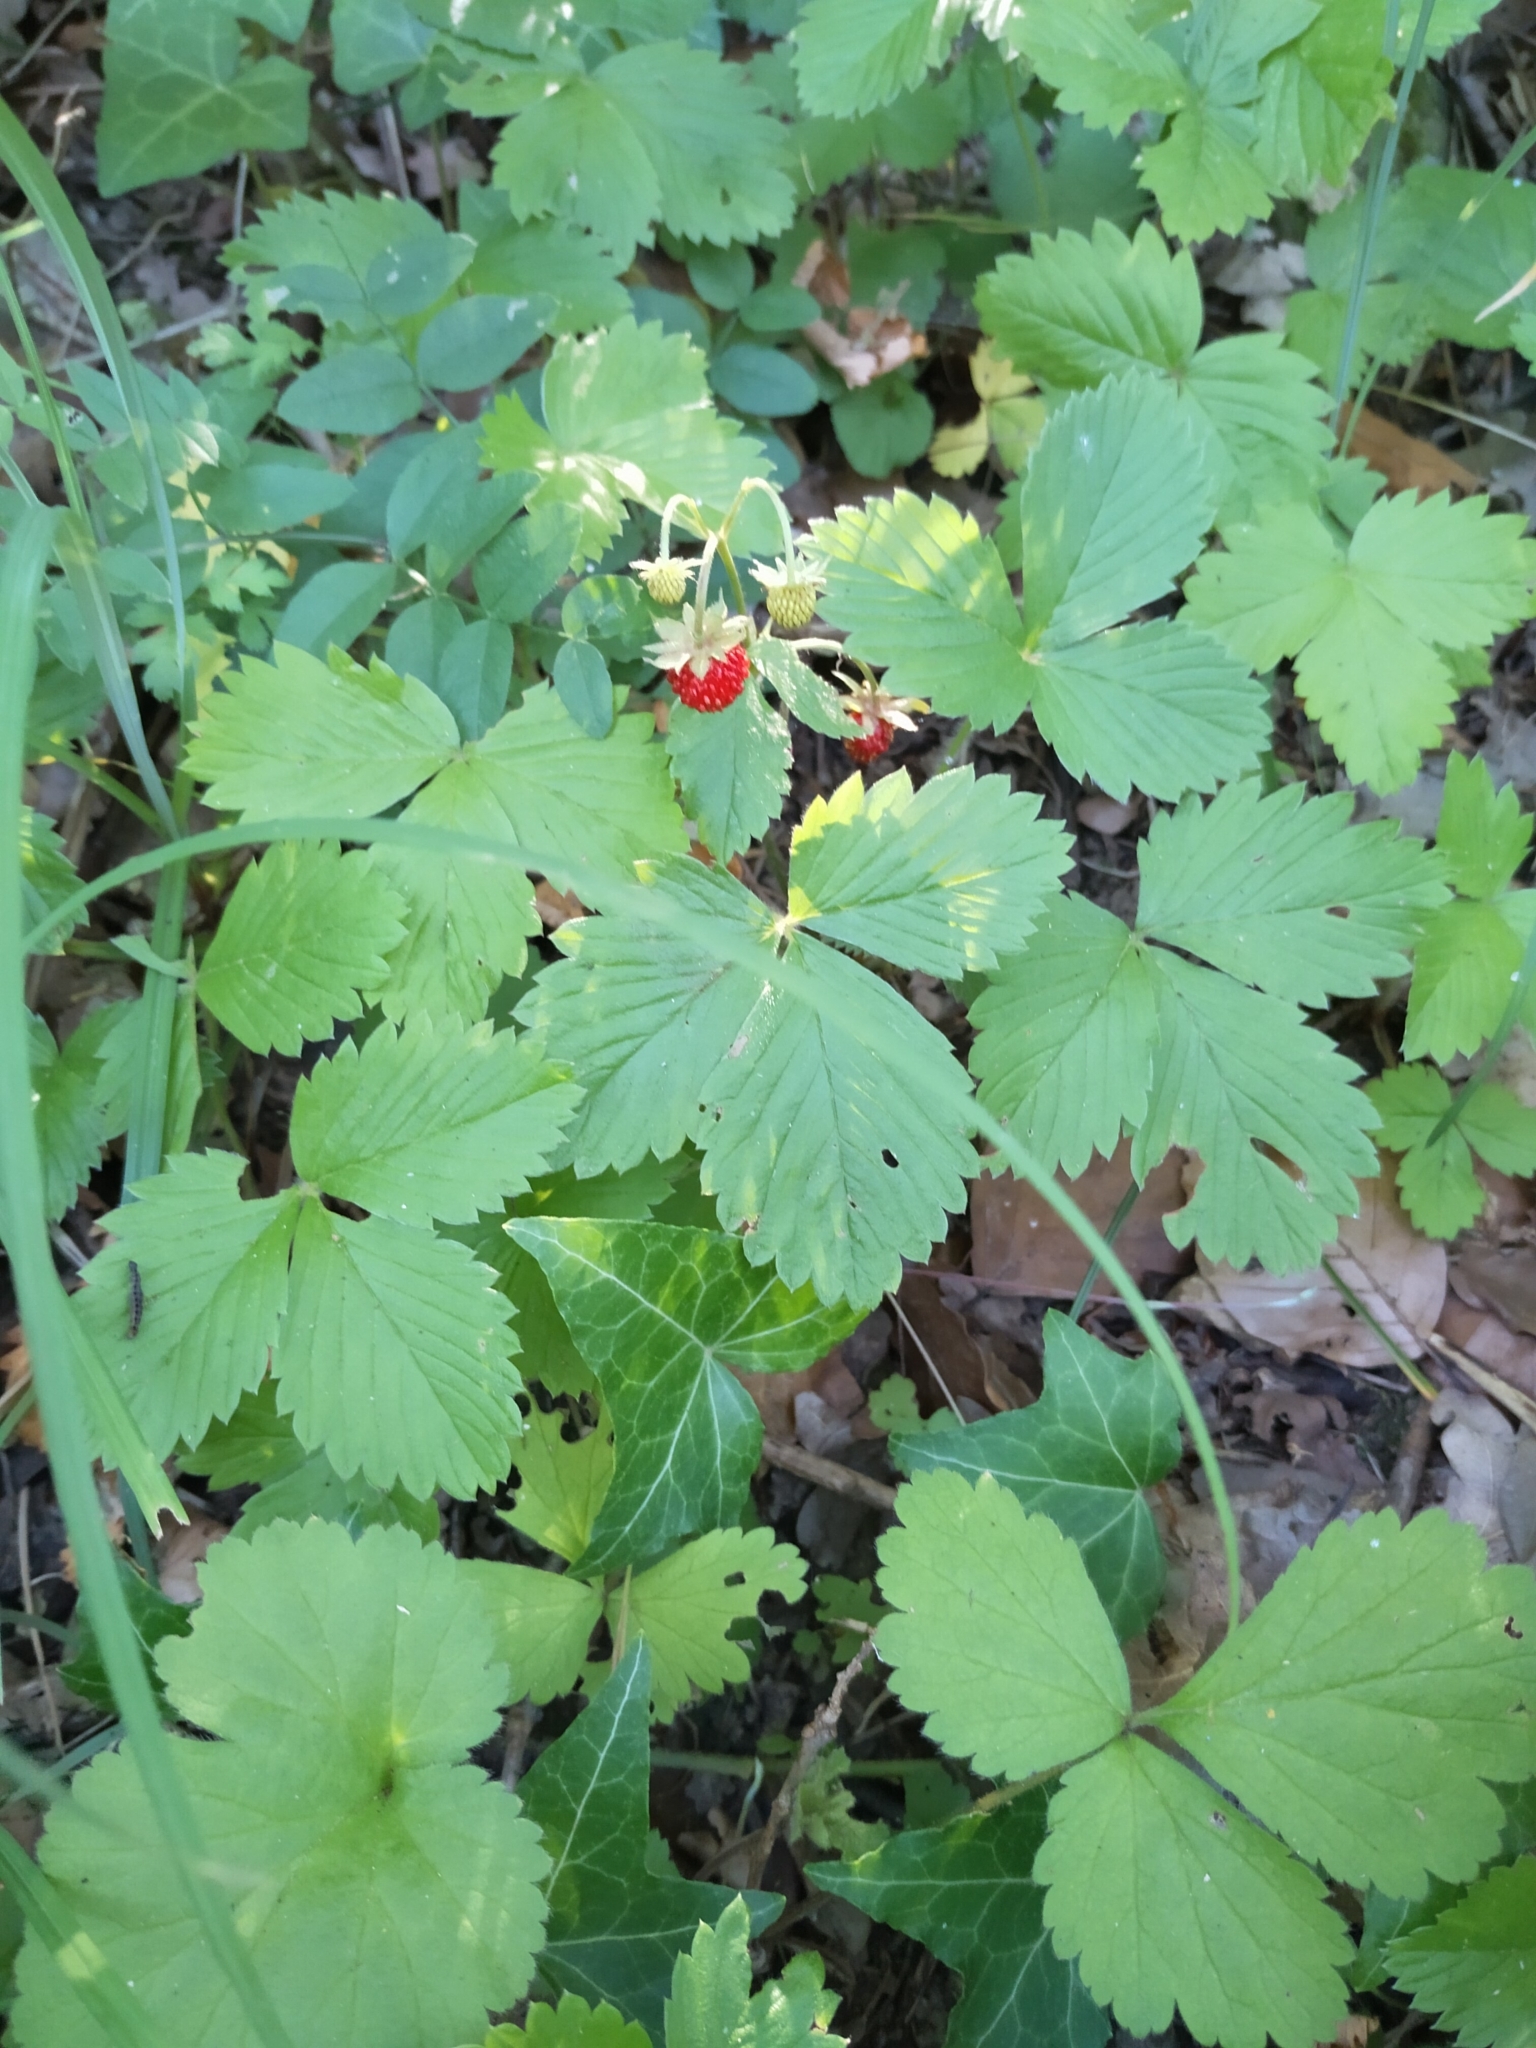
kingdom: Plantae
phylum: Tracheophyta
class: Magnoliopsida
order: Rosales
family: Rosaceae
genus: Fragaria
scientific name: Fragaria vesca
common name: Wild strawberry
